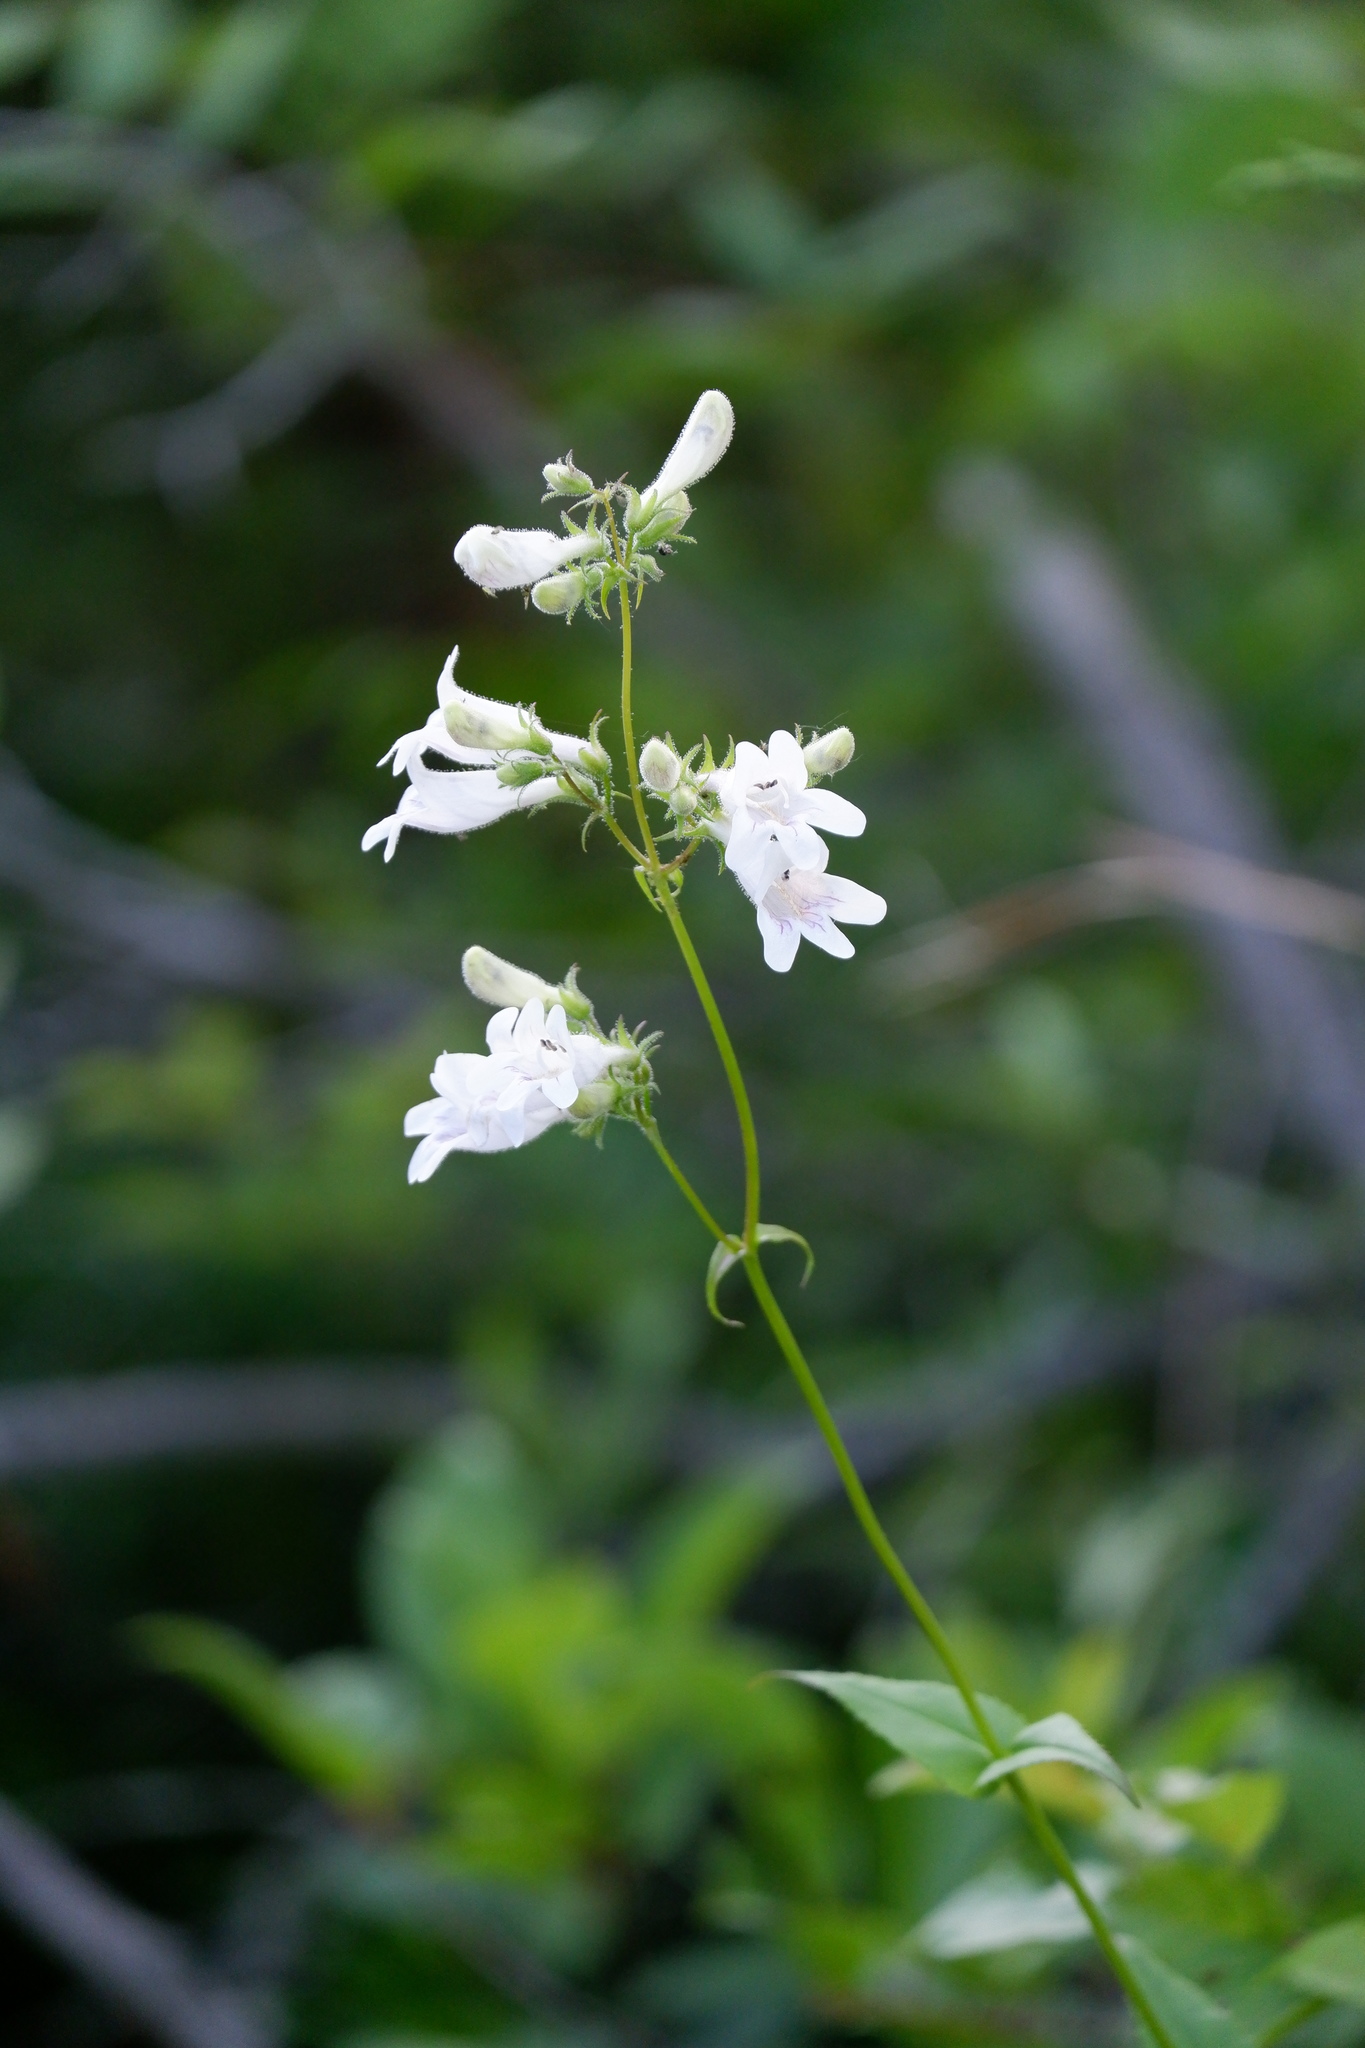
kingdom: Plantae
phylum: Tracheophyta
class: Magnoliopsida
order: Lamiales
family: Plantaginaceae
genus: Penstemon
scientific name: Penstemon digitalis
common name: Foxglove beardtongue
